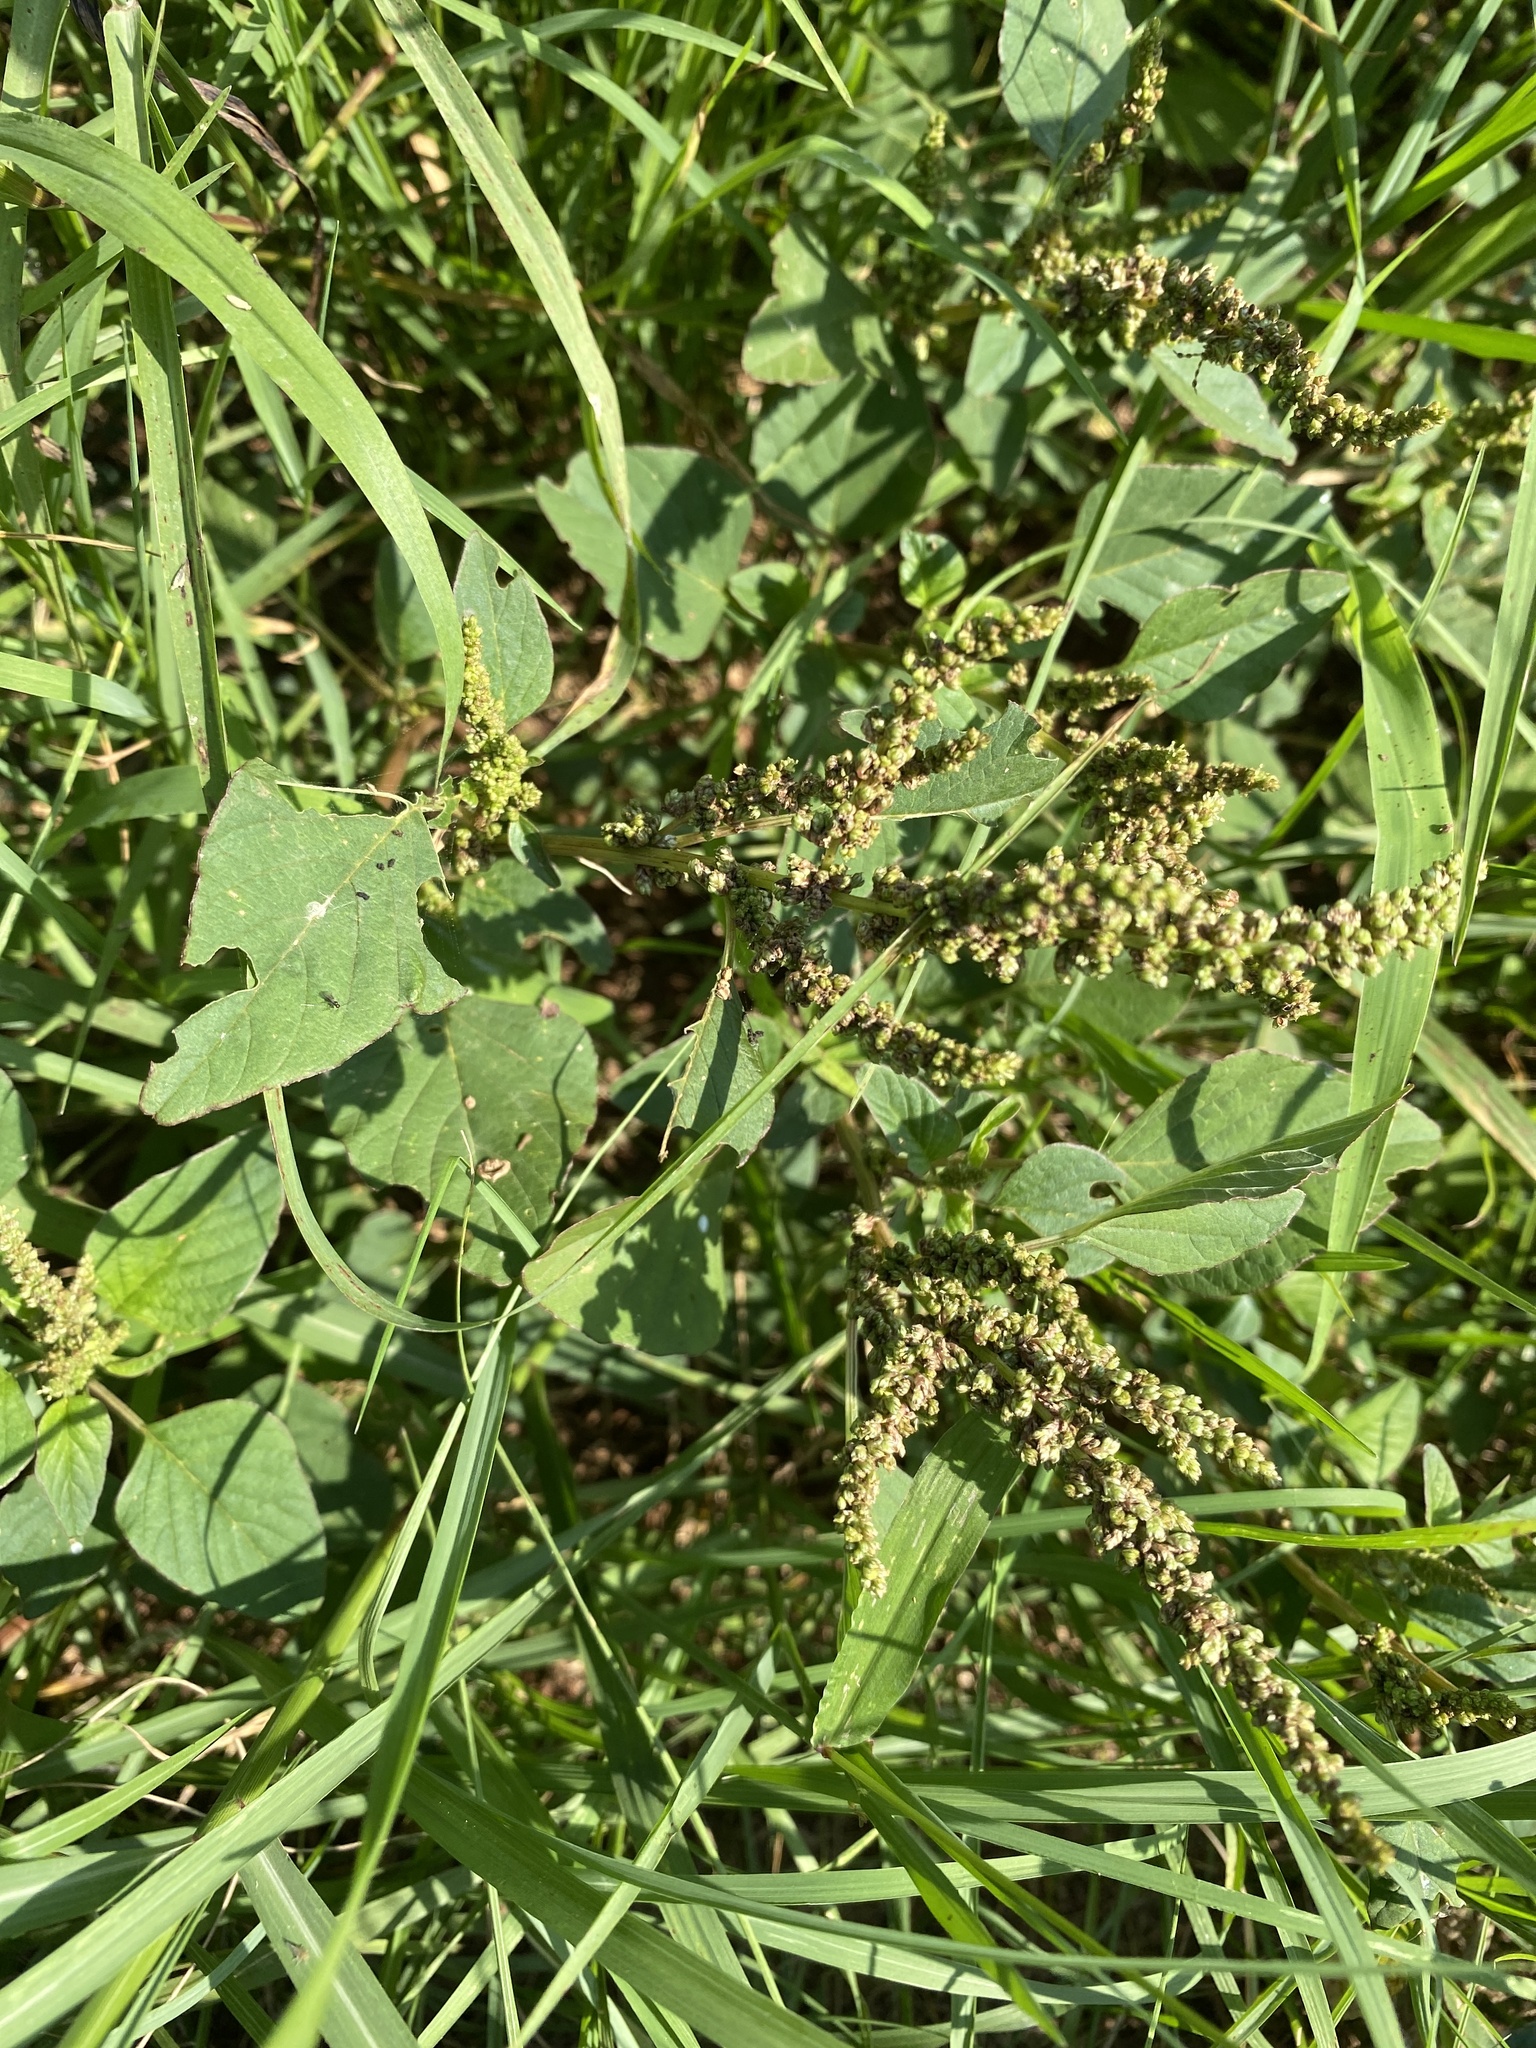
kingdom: Plantae
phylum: Tracheophyta
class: Magnoliopsida
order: Caryophyllales
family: Amaranthaceae
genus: Amaranthus
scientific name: Amaranthus hybridus
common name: Green amaranth
